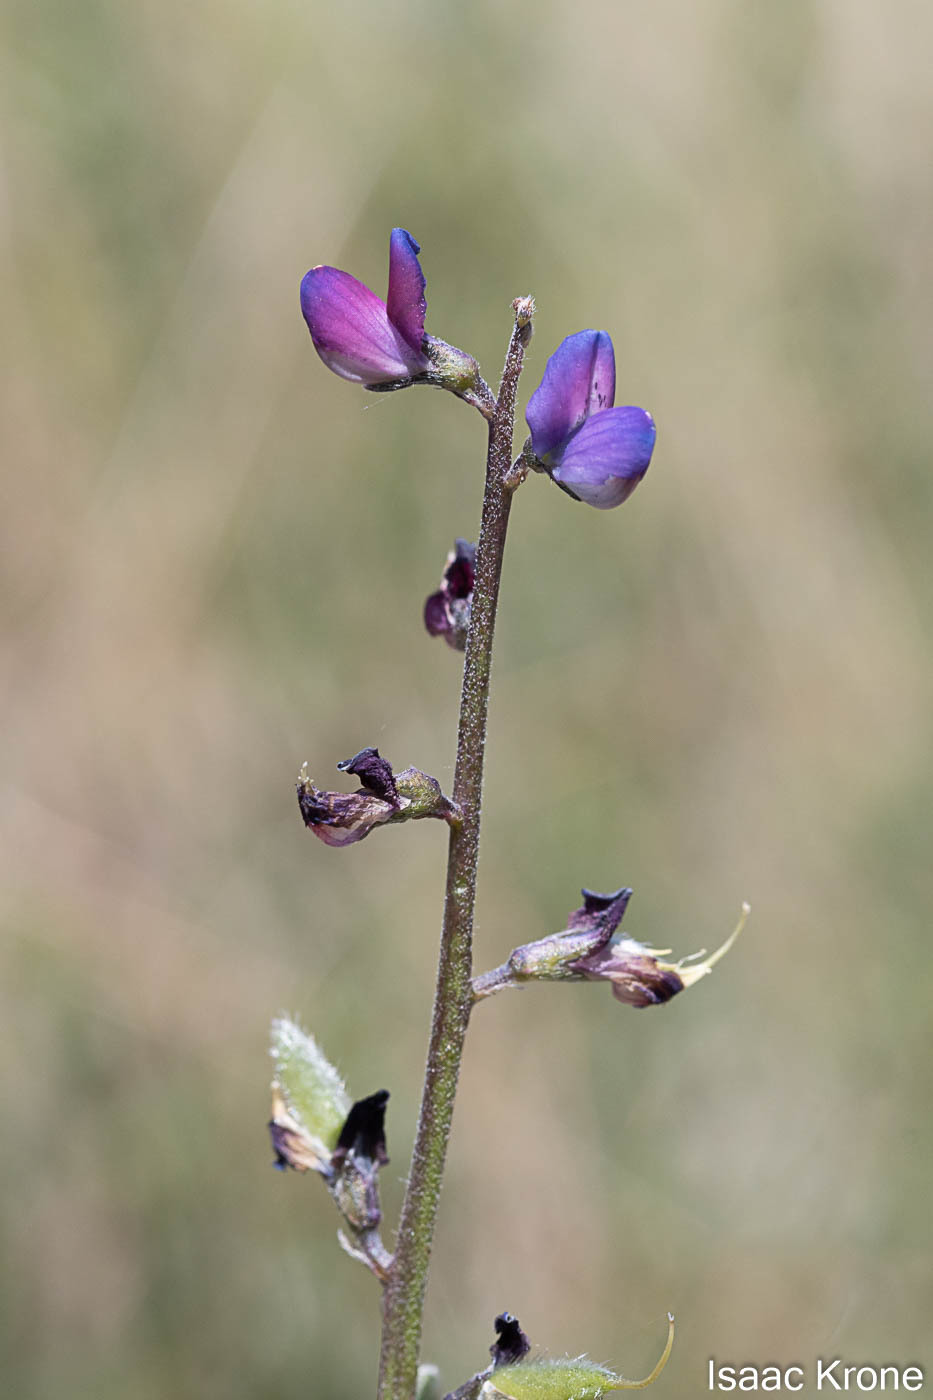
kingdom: Plantae
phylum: Tracheophyta
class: Magnoliopsida
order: Fabales
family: Fabaceae
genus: Lupinus
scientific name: Lupinus truncatus
